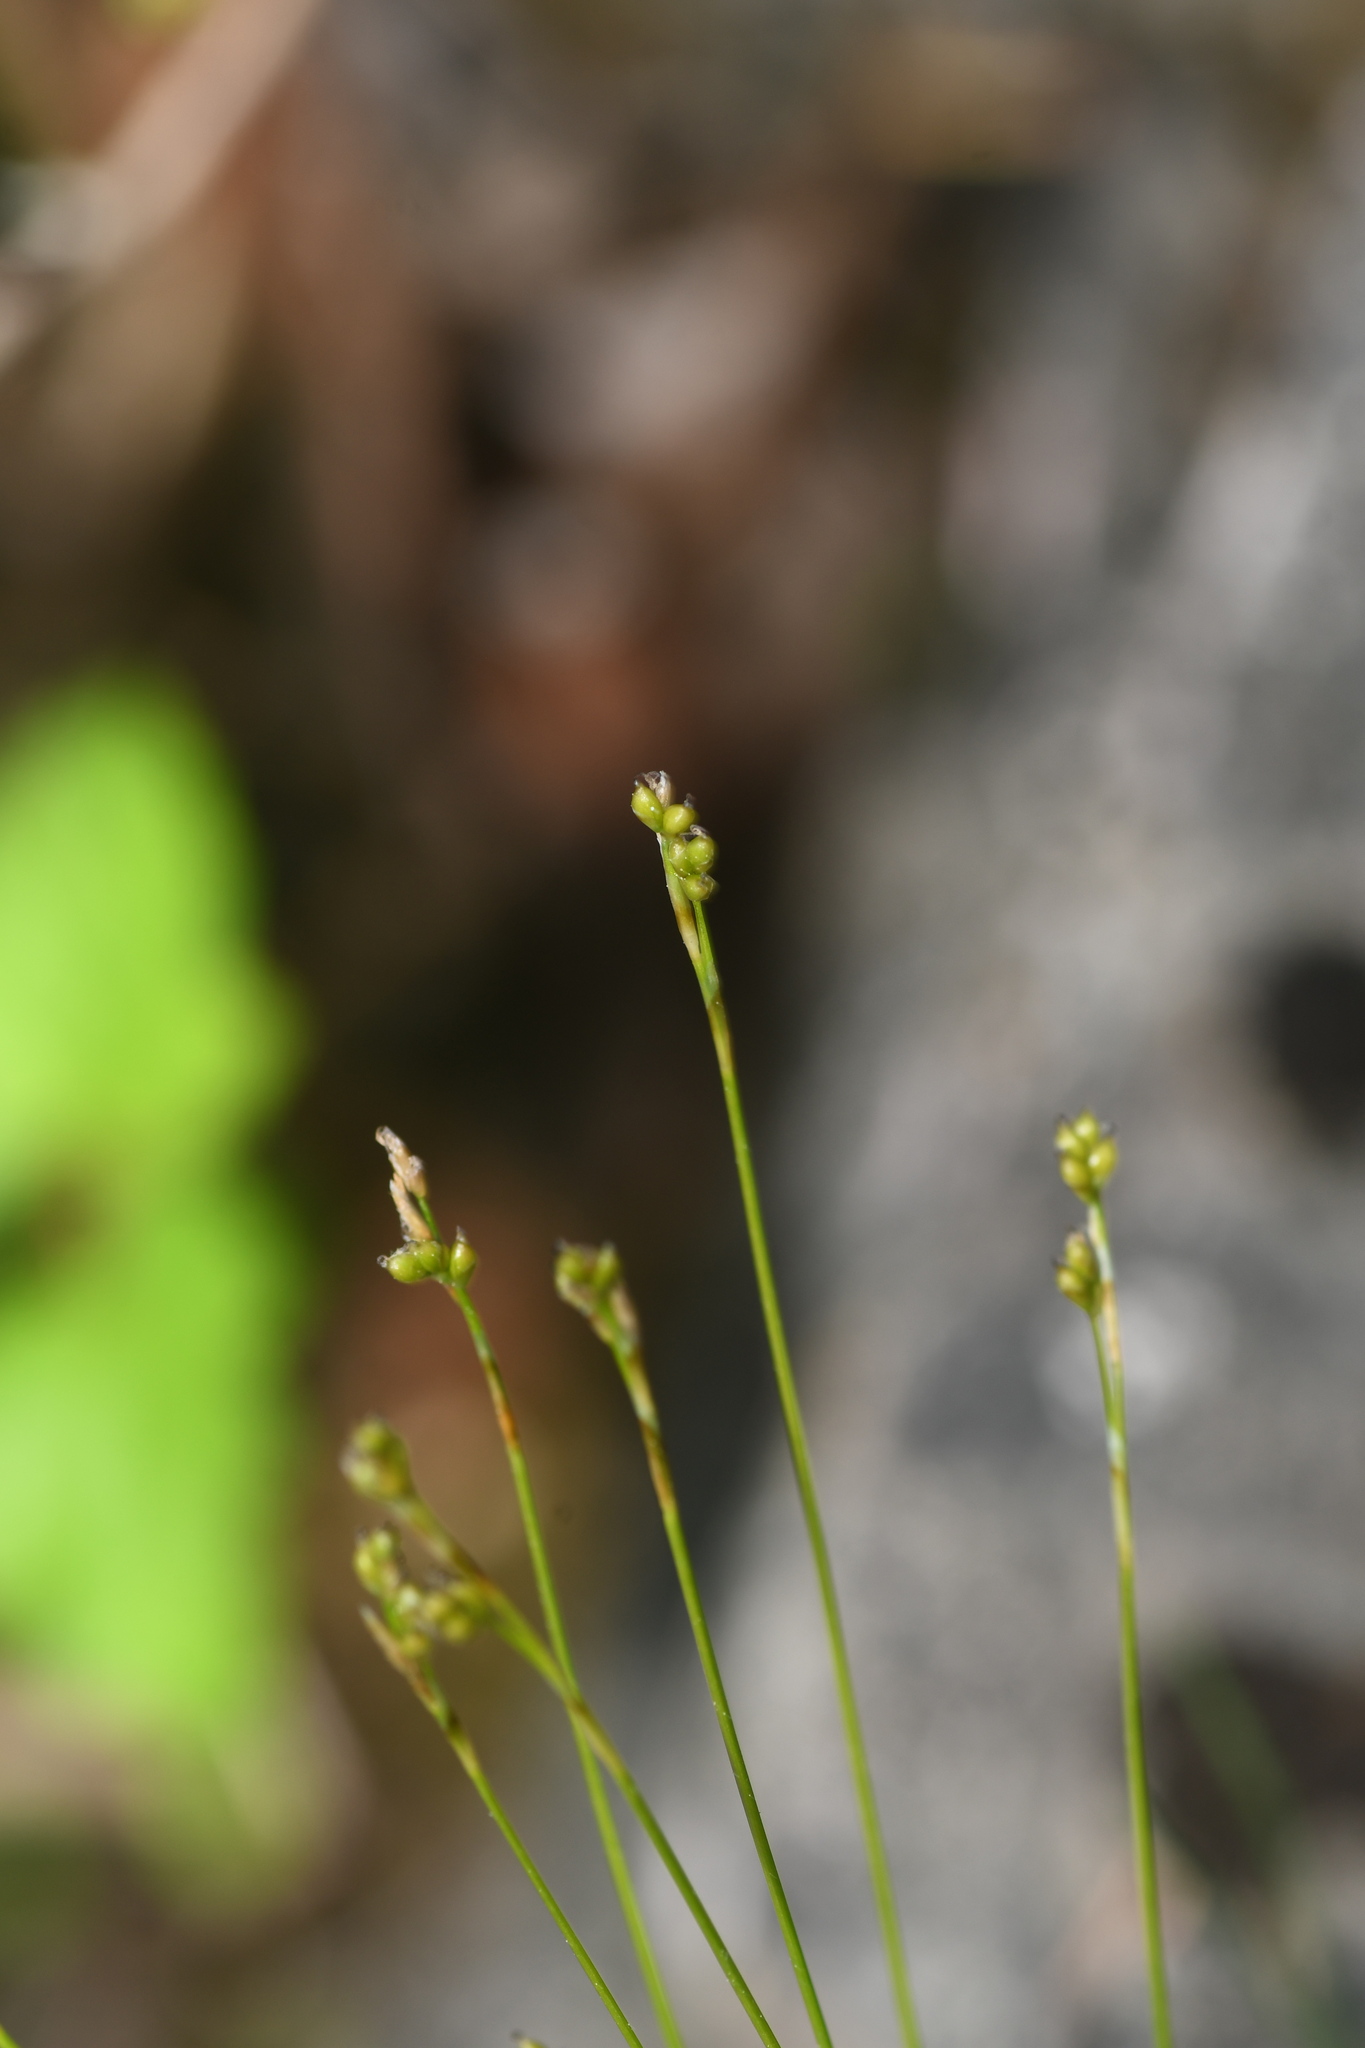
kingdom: Plantae
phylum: Tracheophyta
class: Liliopsida
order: Poales
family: Cyperaceae
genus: Carex
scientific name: Carex eburnea
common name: Bristle-leaved sedge
